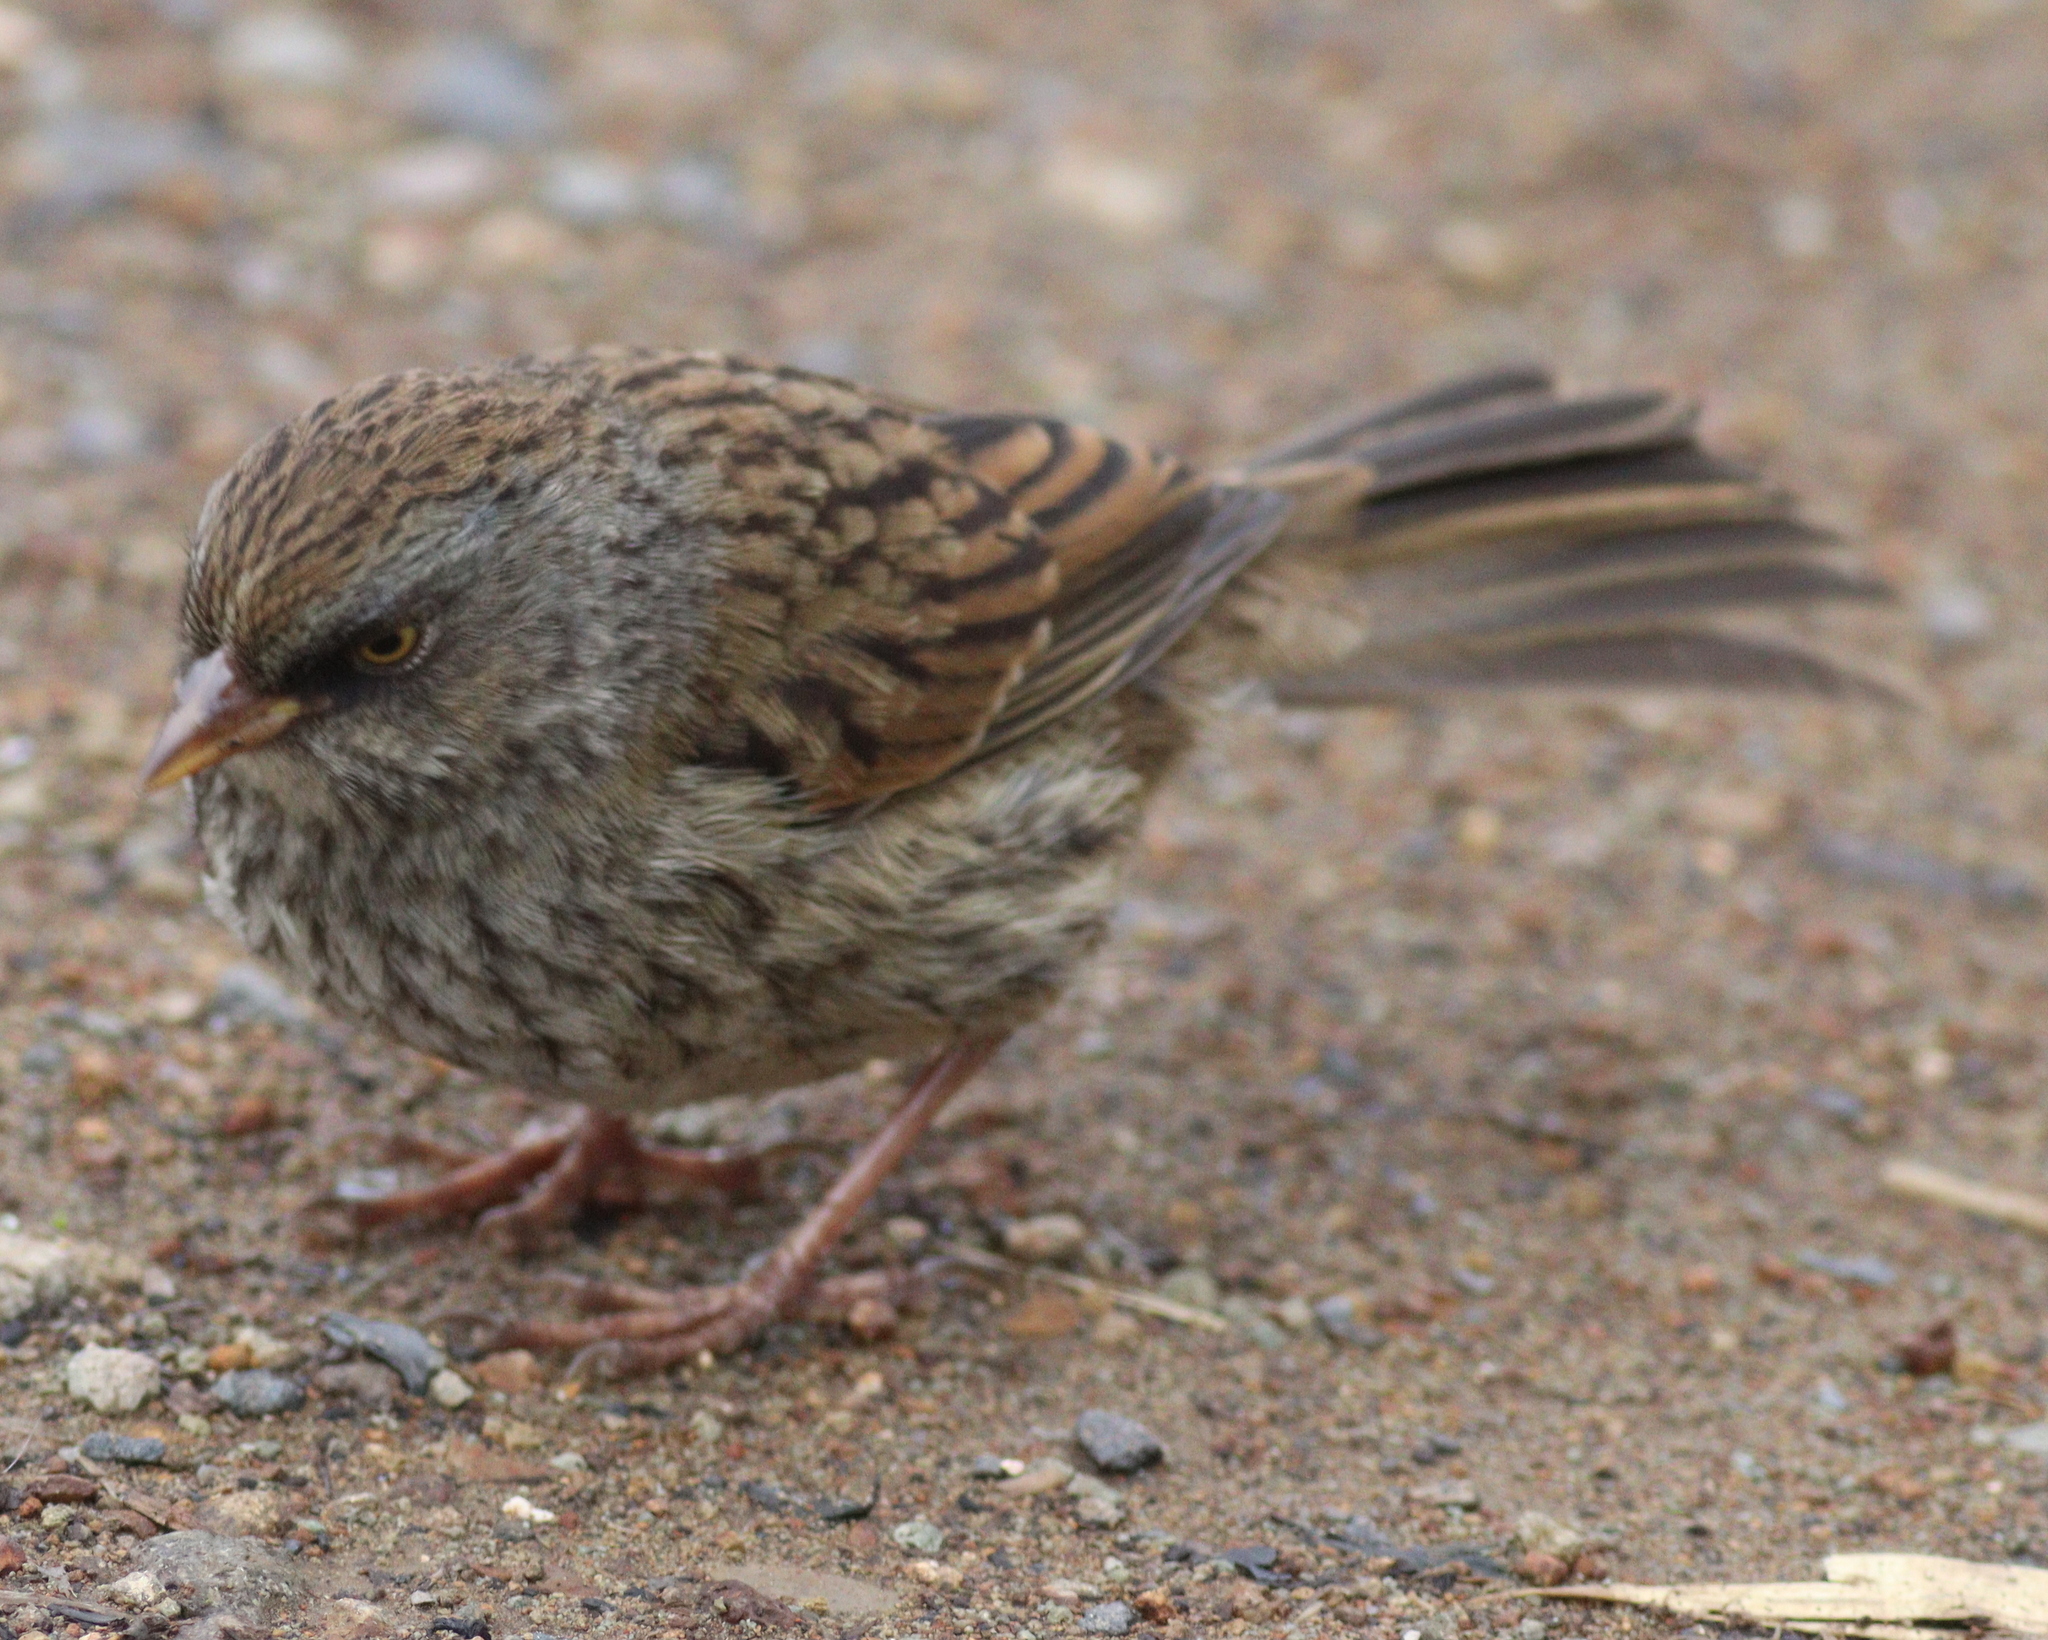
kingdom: Animalia
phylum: Chordata
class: Aves
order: Passeriformes
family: Passerellidae
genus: Junco
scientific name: Junco vulcani
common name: Volcano junco
